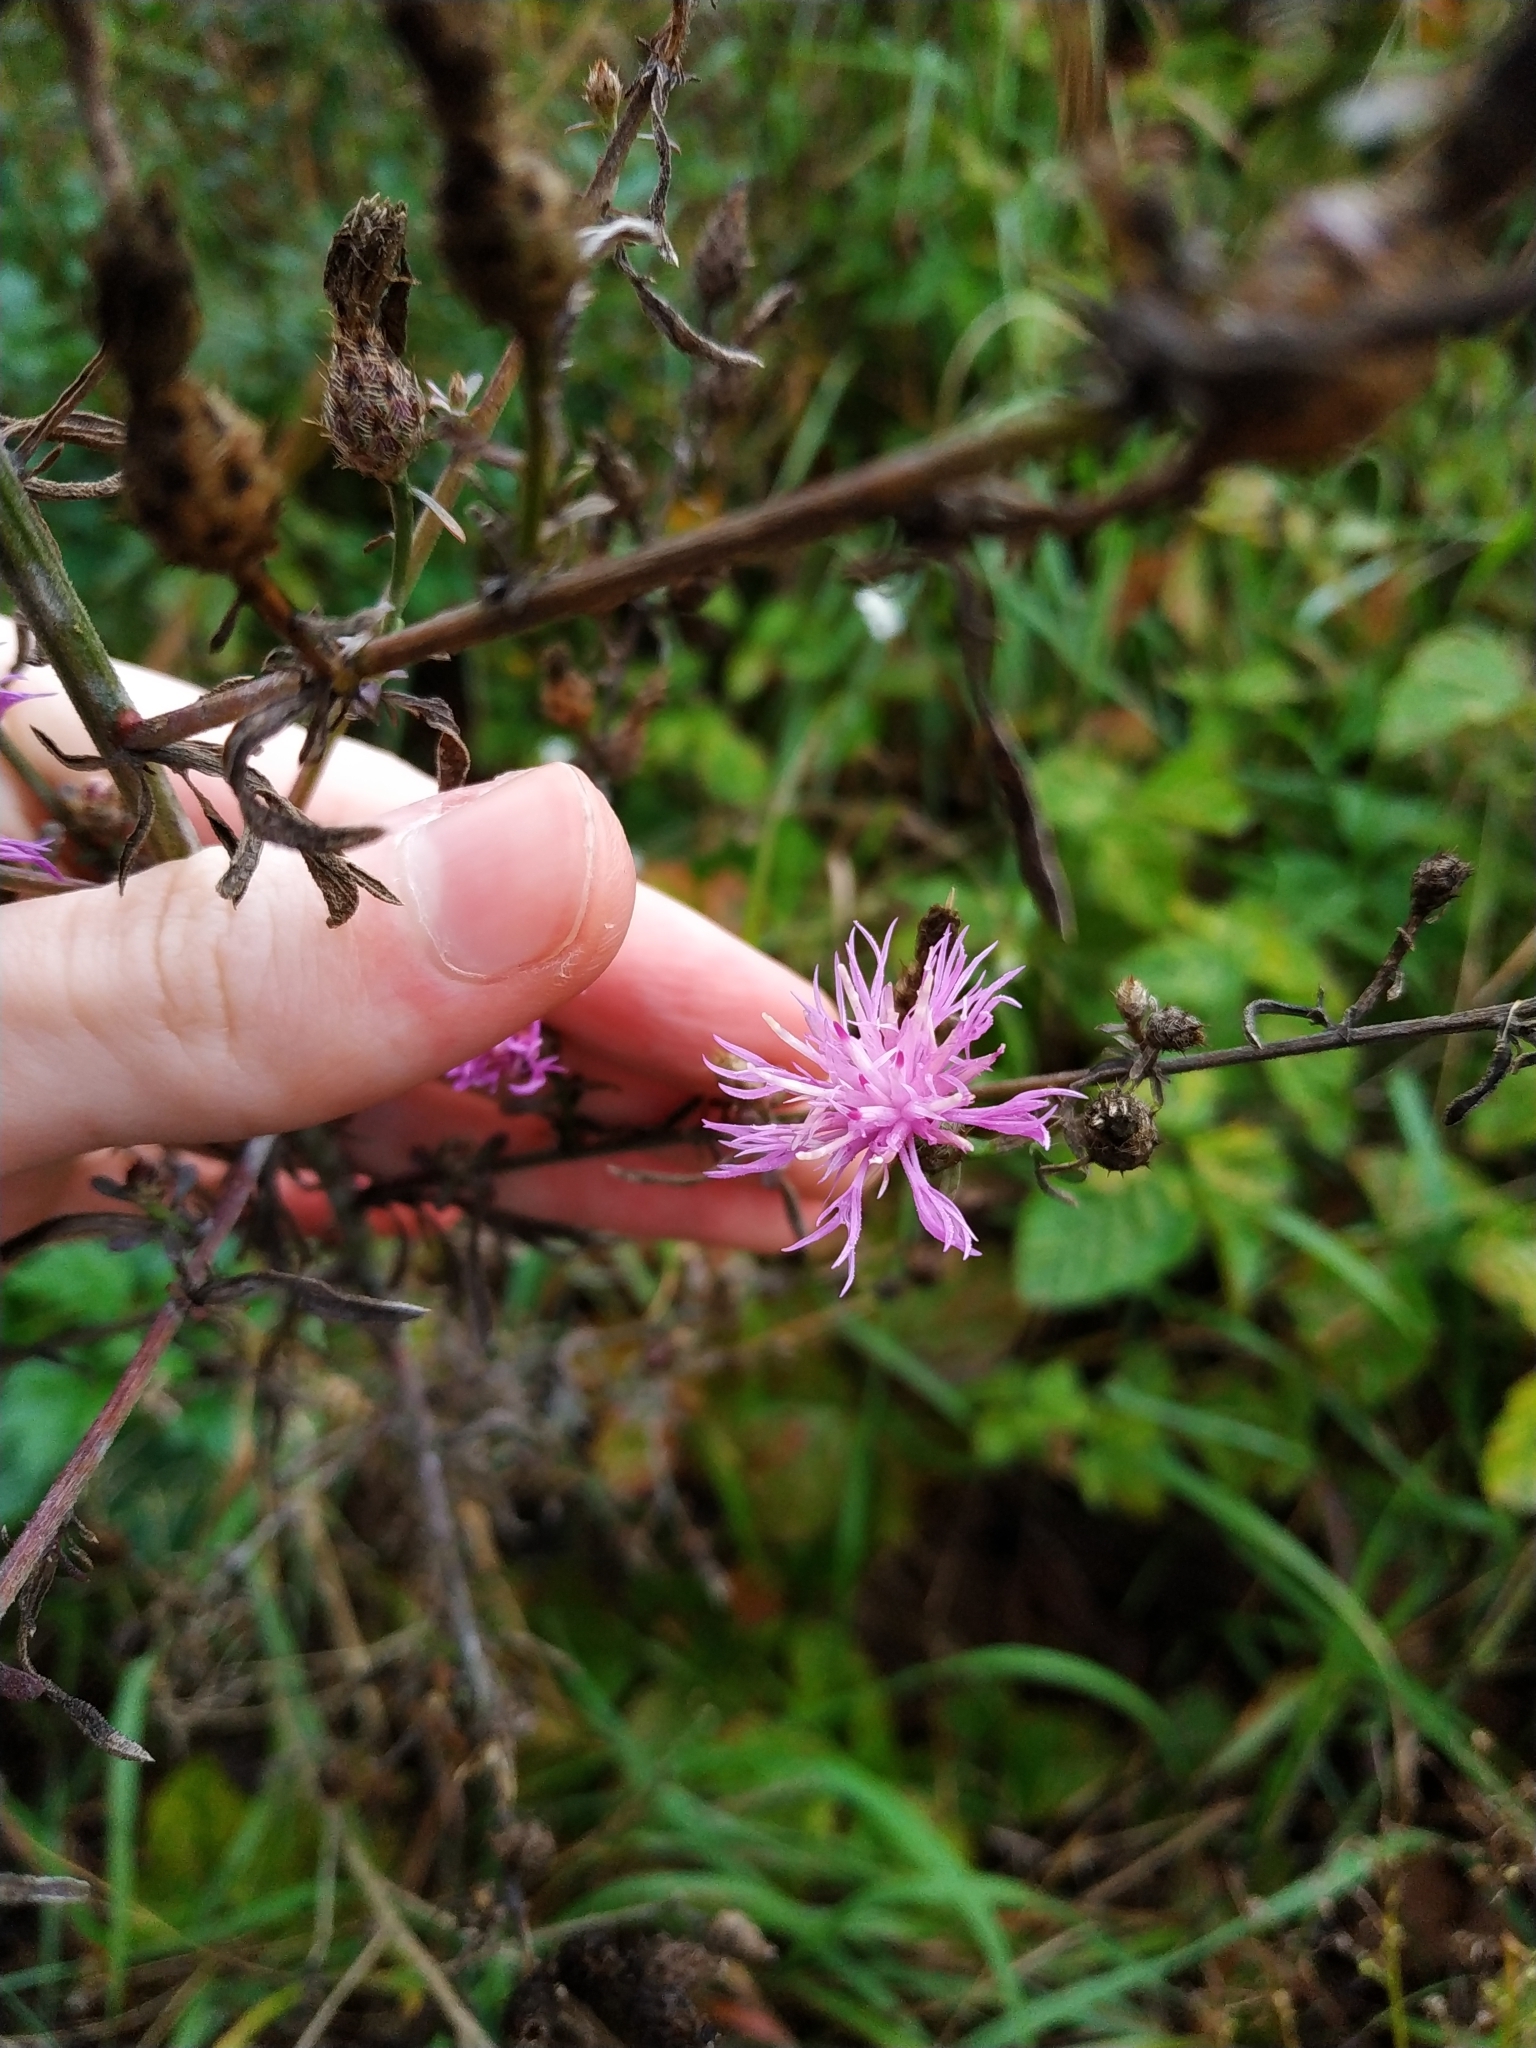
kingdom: Plantae
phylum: Tracheophyta
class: Magnoliopsida
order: Asterales
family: Asteraceae
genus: Centaurea
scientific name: Centaurea stoebe
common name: Spotted knapweed
